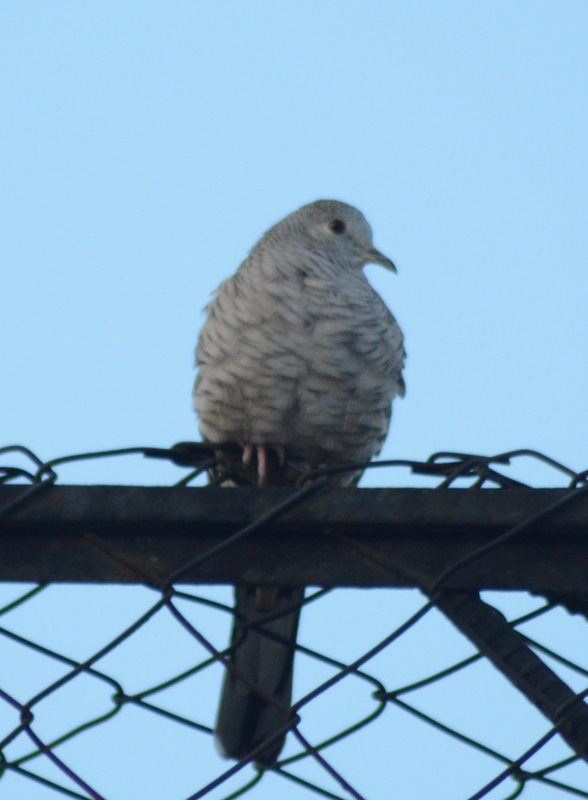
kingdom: Animalia
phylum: Chordata
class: Aves
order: Columbiformes
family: Columbidae
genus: Columbina
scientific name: Columbina inca
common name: Inca dove
